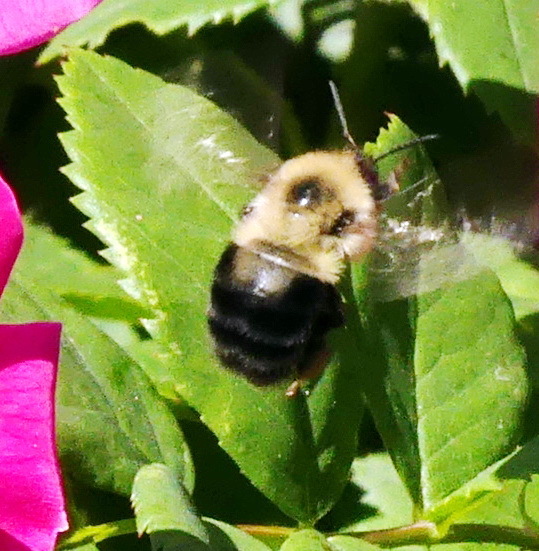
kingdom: Animalia
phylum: Arthropoda
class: Insecta
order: Hymenoptera
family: Apidae
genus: Bombus
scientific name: Bombus bimaculatus
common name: Two-spotted bumble bee
